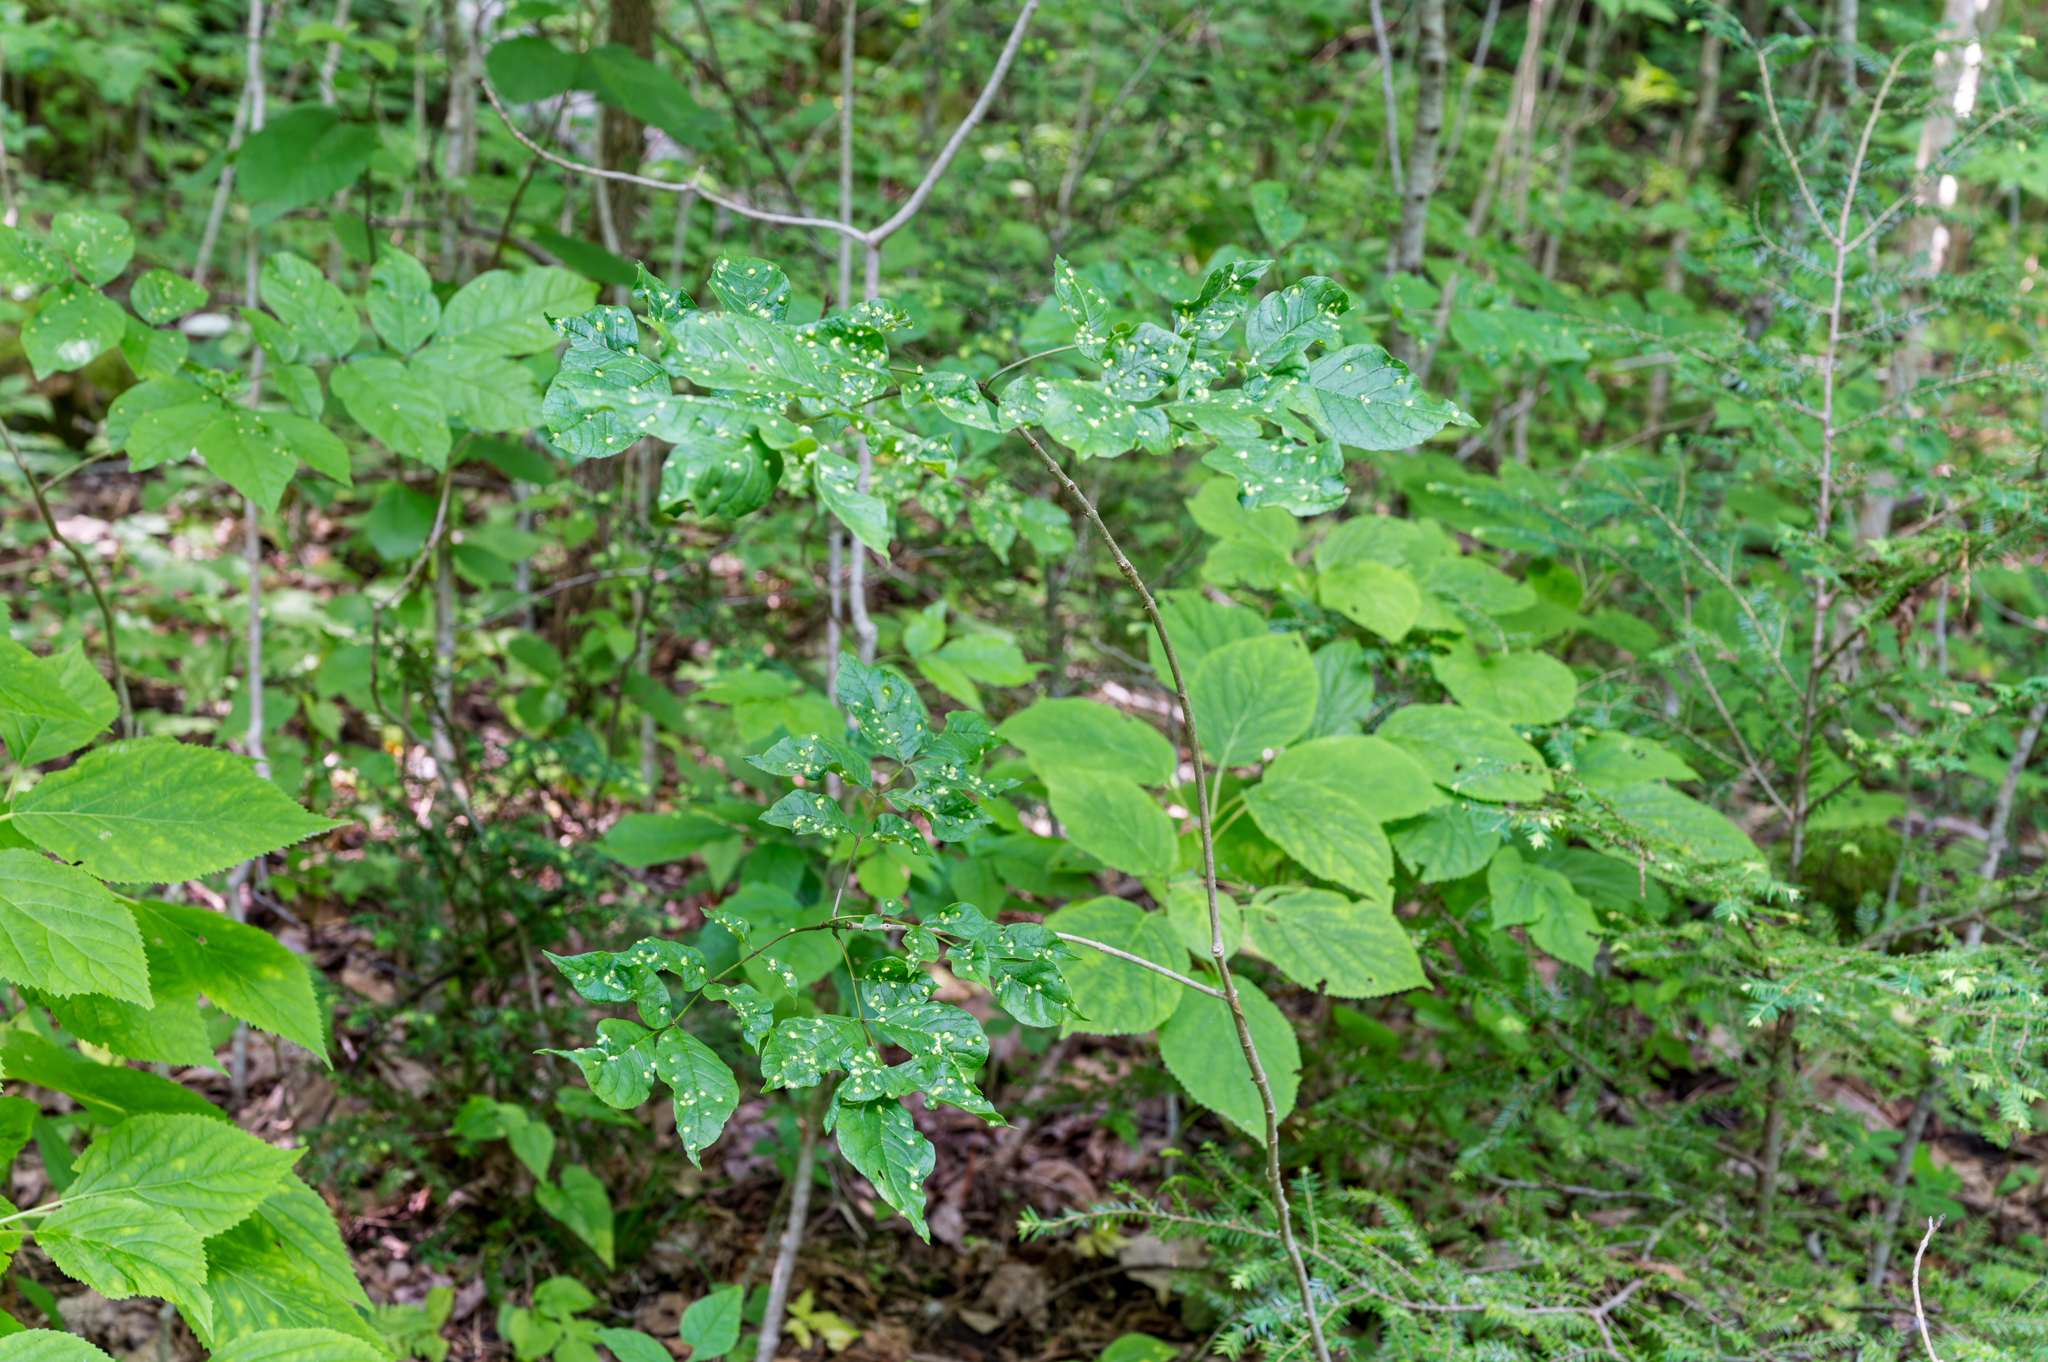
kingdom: Animalia
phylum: Arthropoda
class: Arachnida
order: Trombidiformes
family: Eriophyidae
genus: Aceria
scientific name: Aceria fraxinicola
